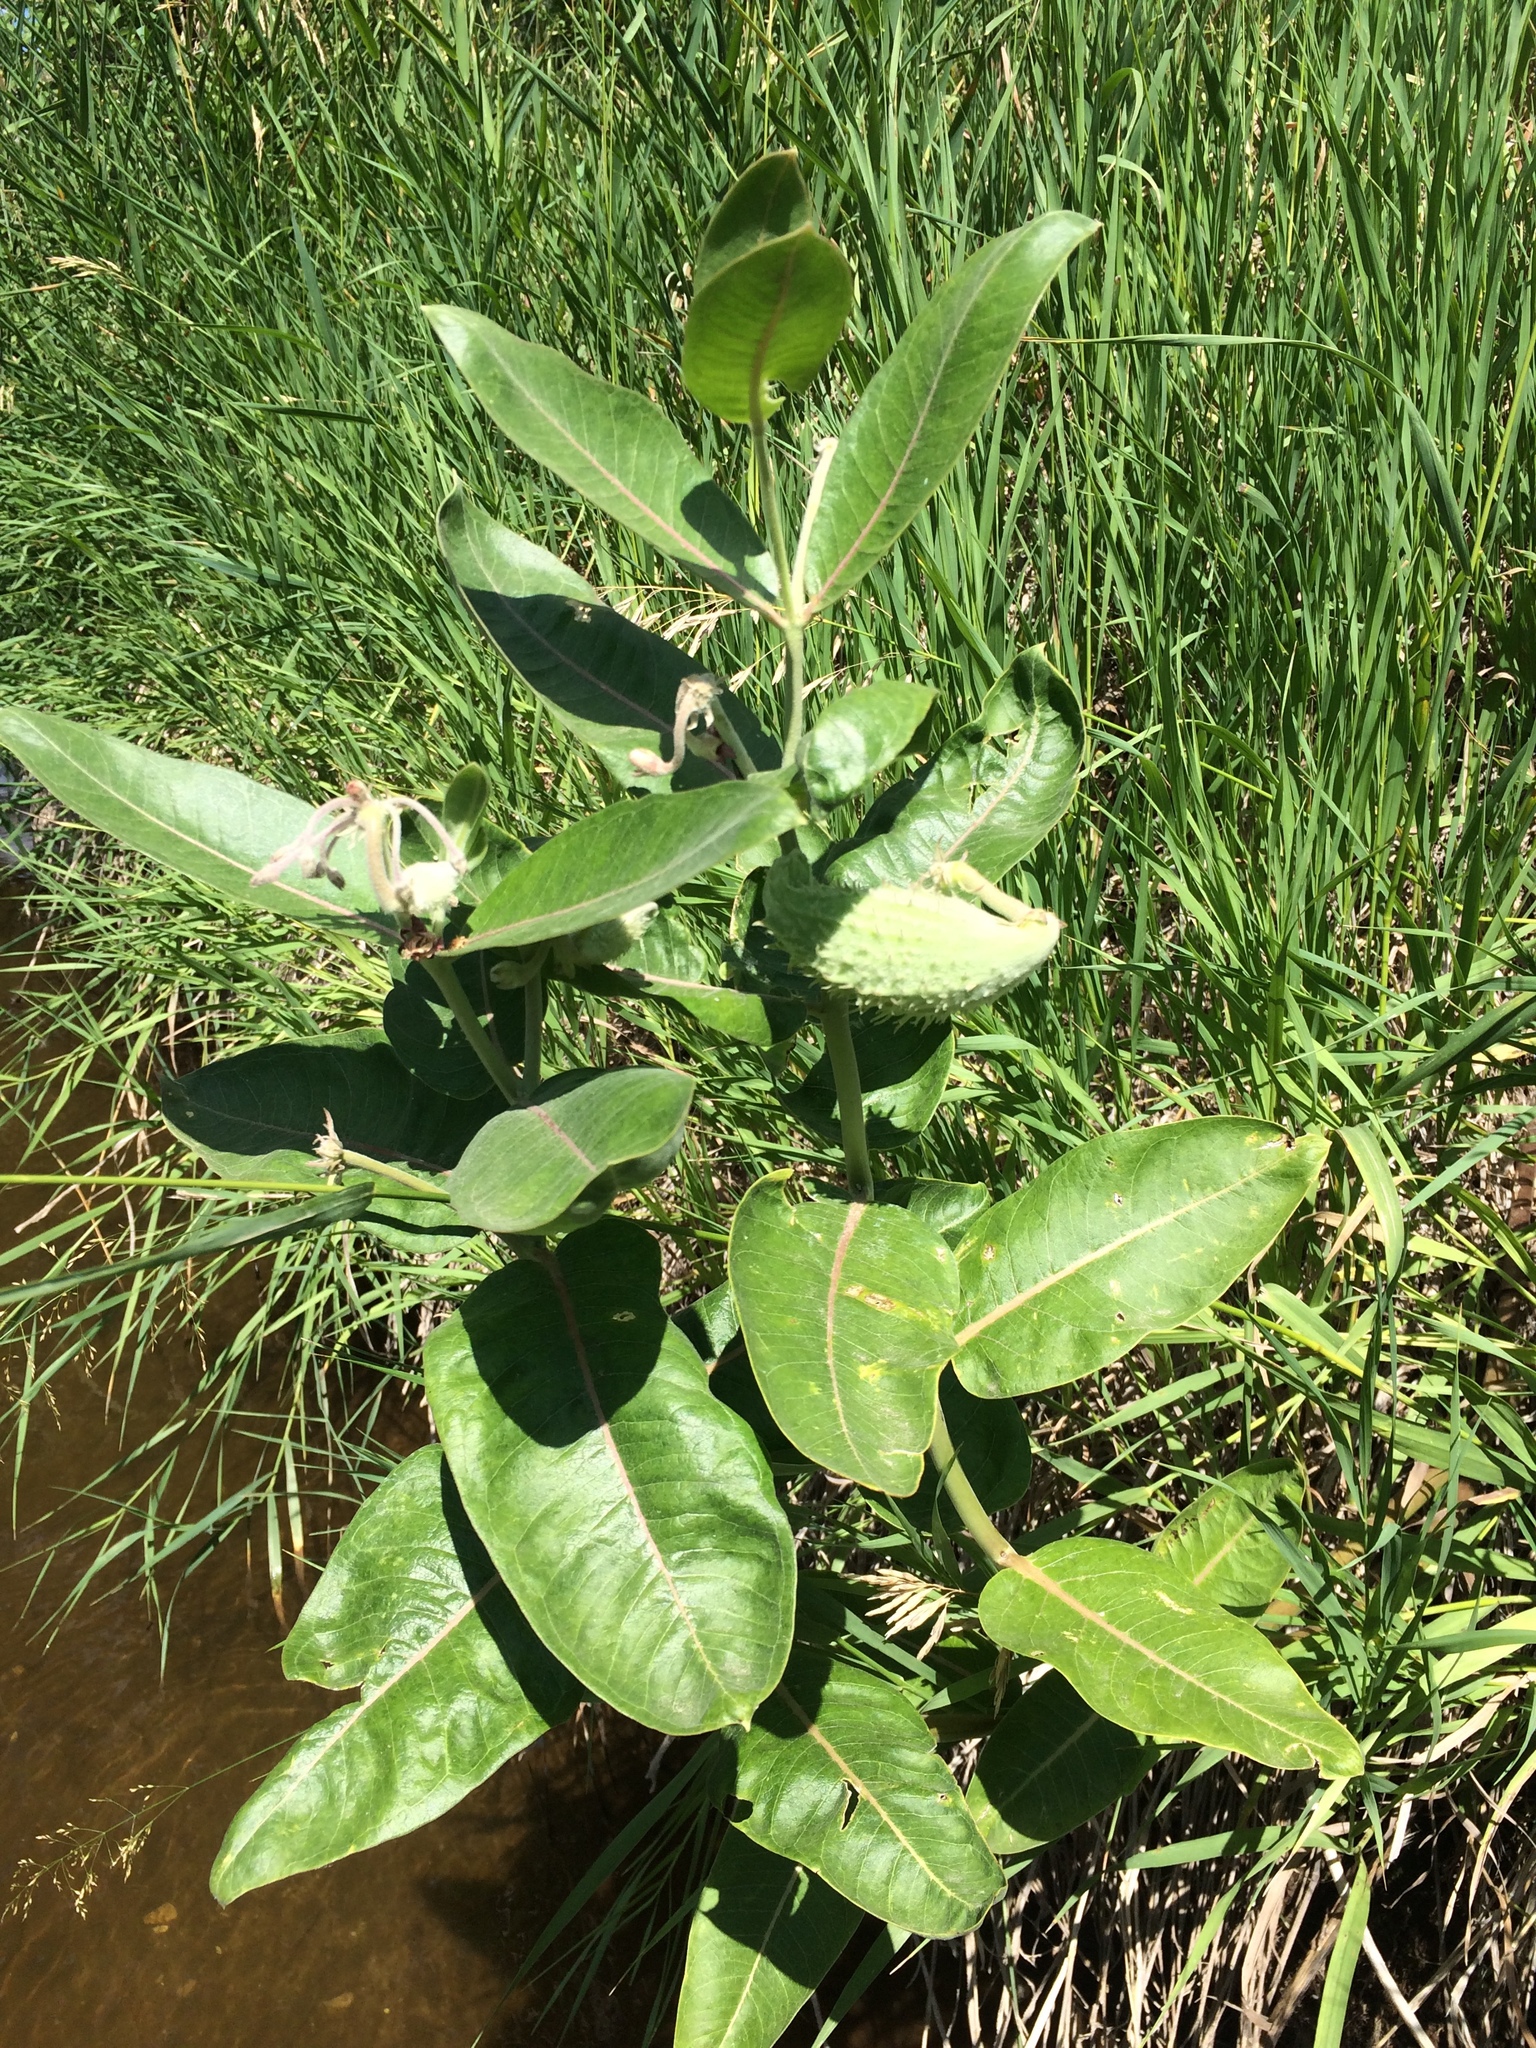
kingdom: Plantae
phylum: Tracheophyta
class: Magnoliopsida
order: Gentianales
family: Apocynaceae
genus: Asclepias
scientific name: Asclepias speciosa
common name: Showy milkweed
